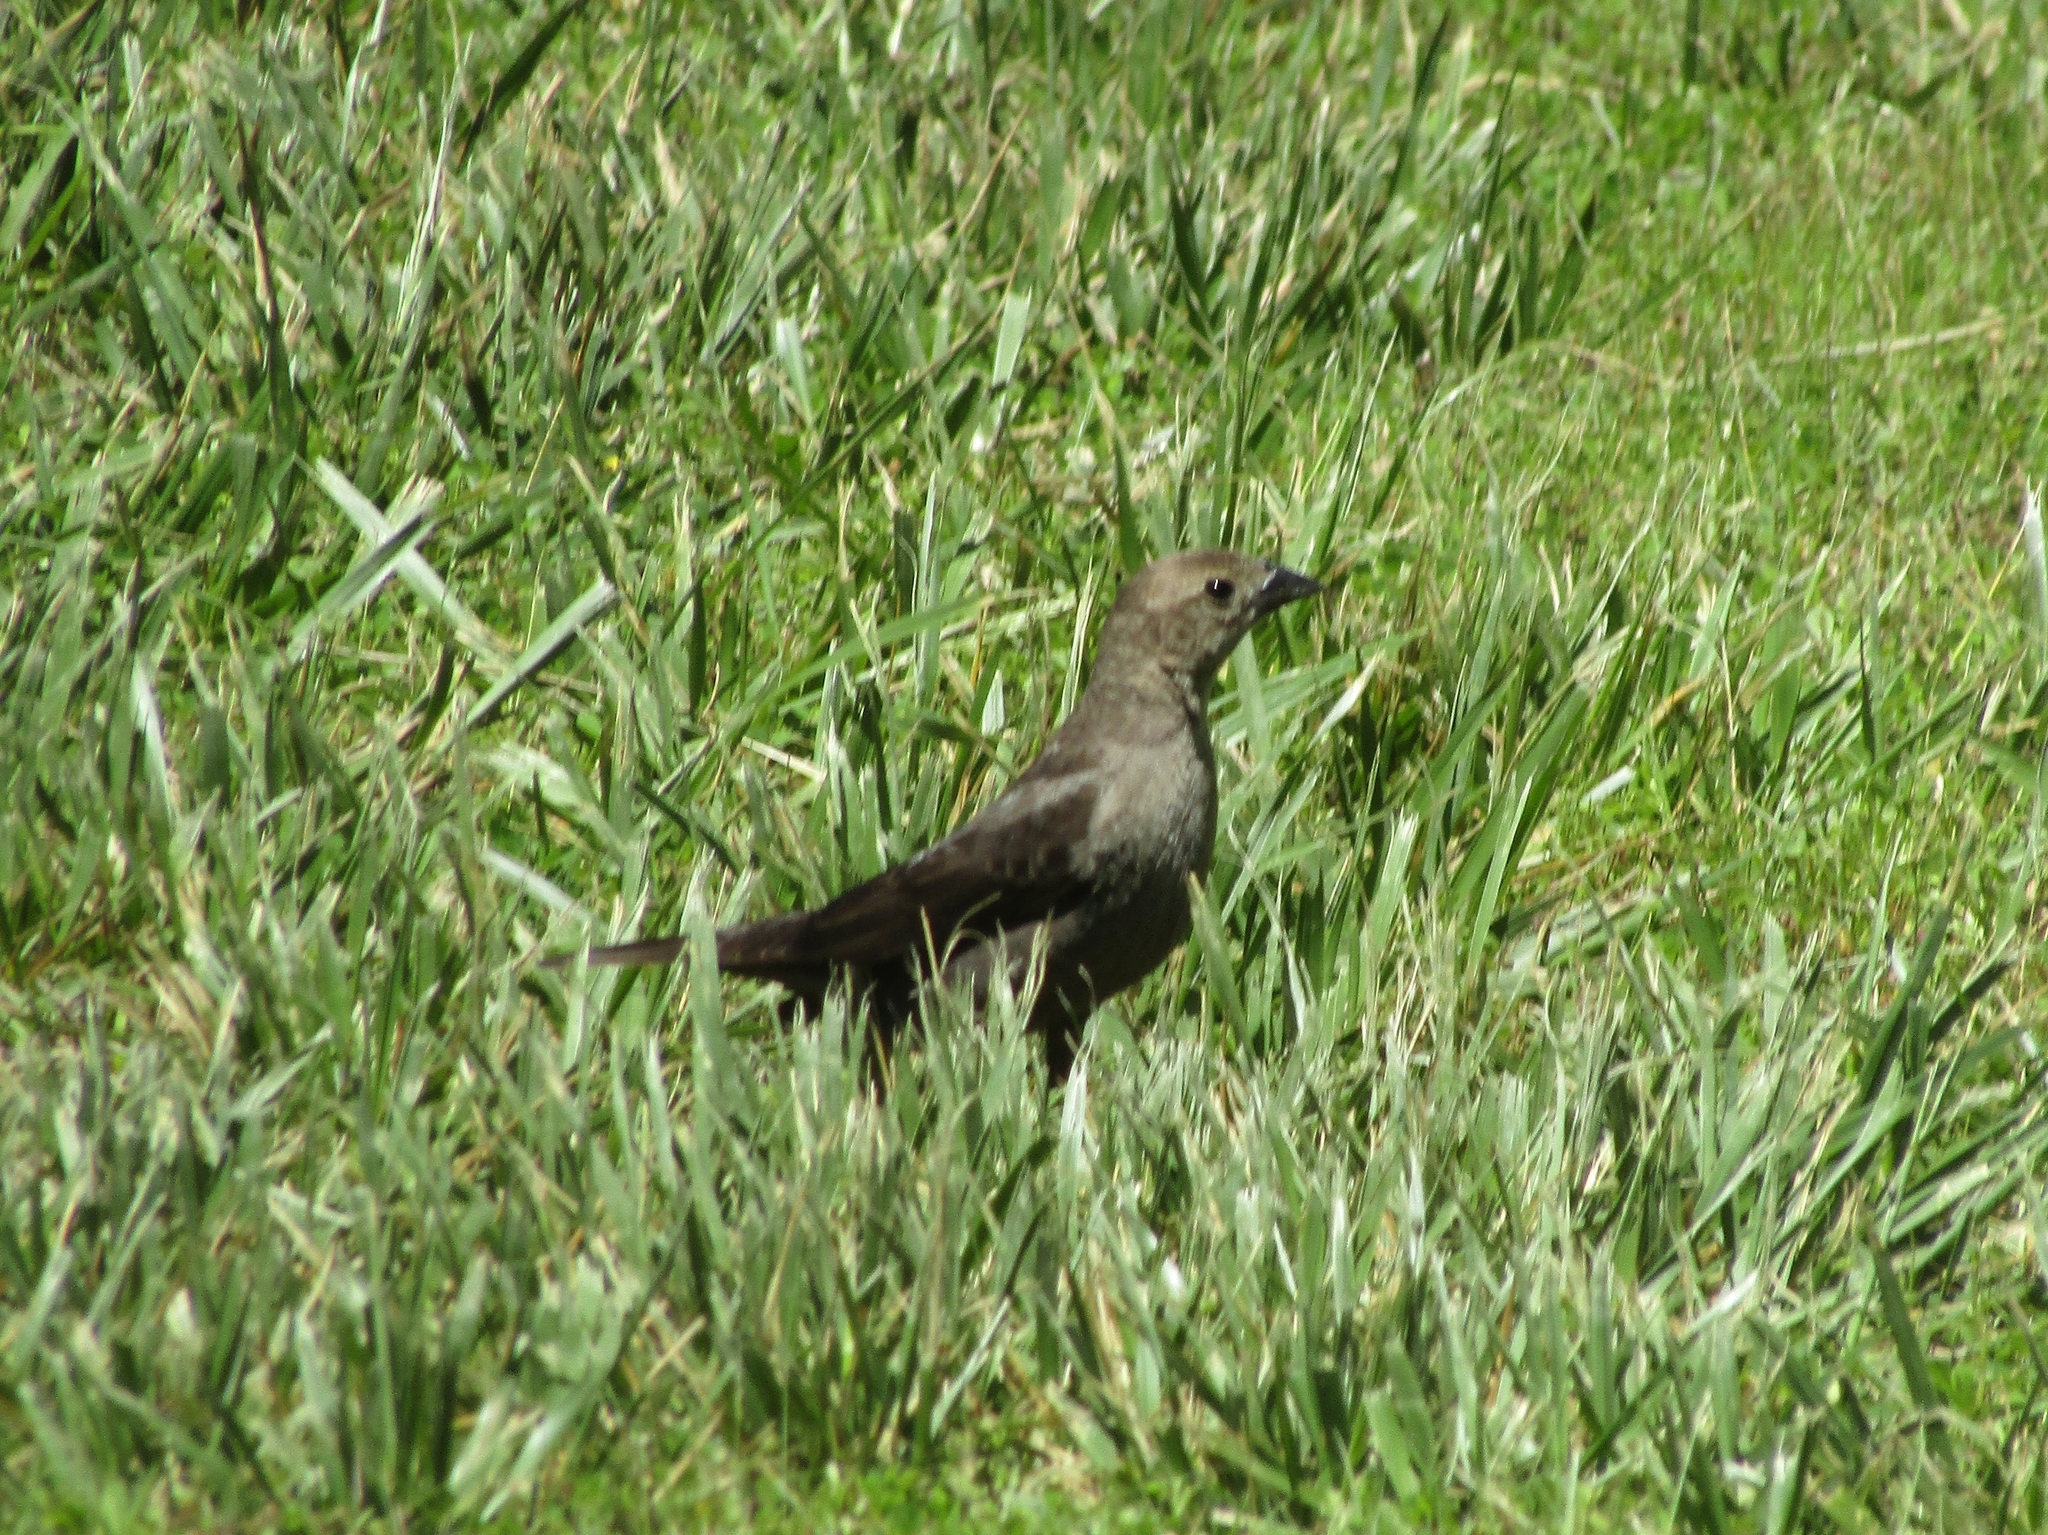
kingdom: Animalia
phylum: Chordata
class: Aves
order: Passeriformes
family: Icteridae
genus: Molothrus
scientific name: Molothrus ater
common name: Brown-headed cowbird
